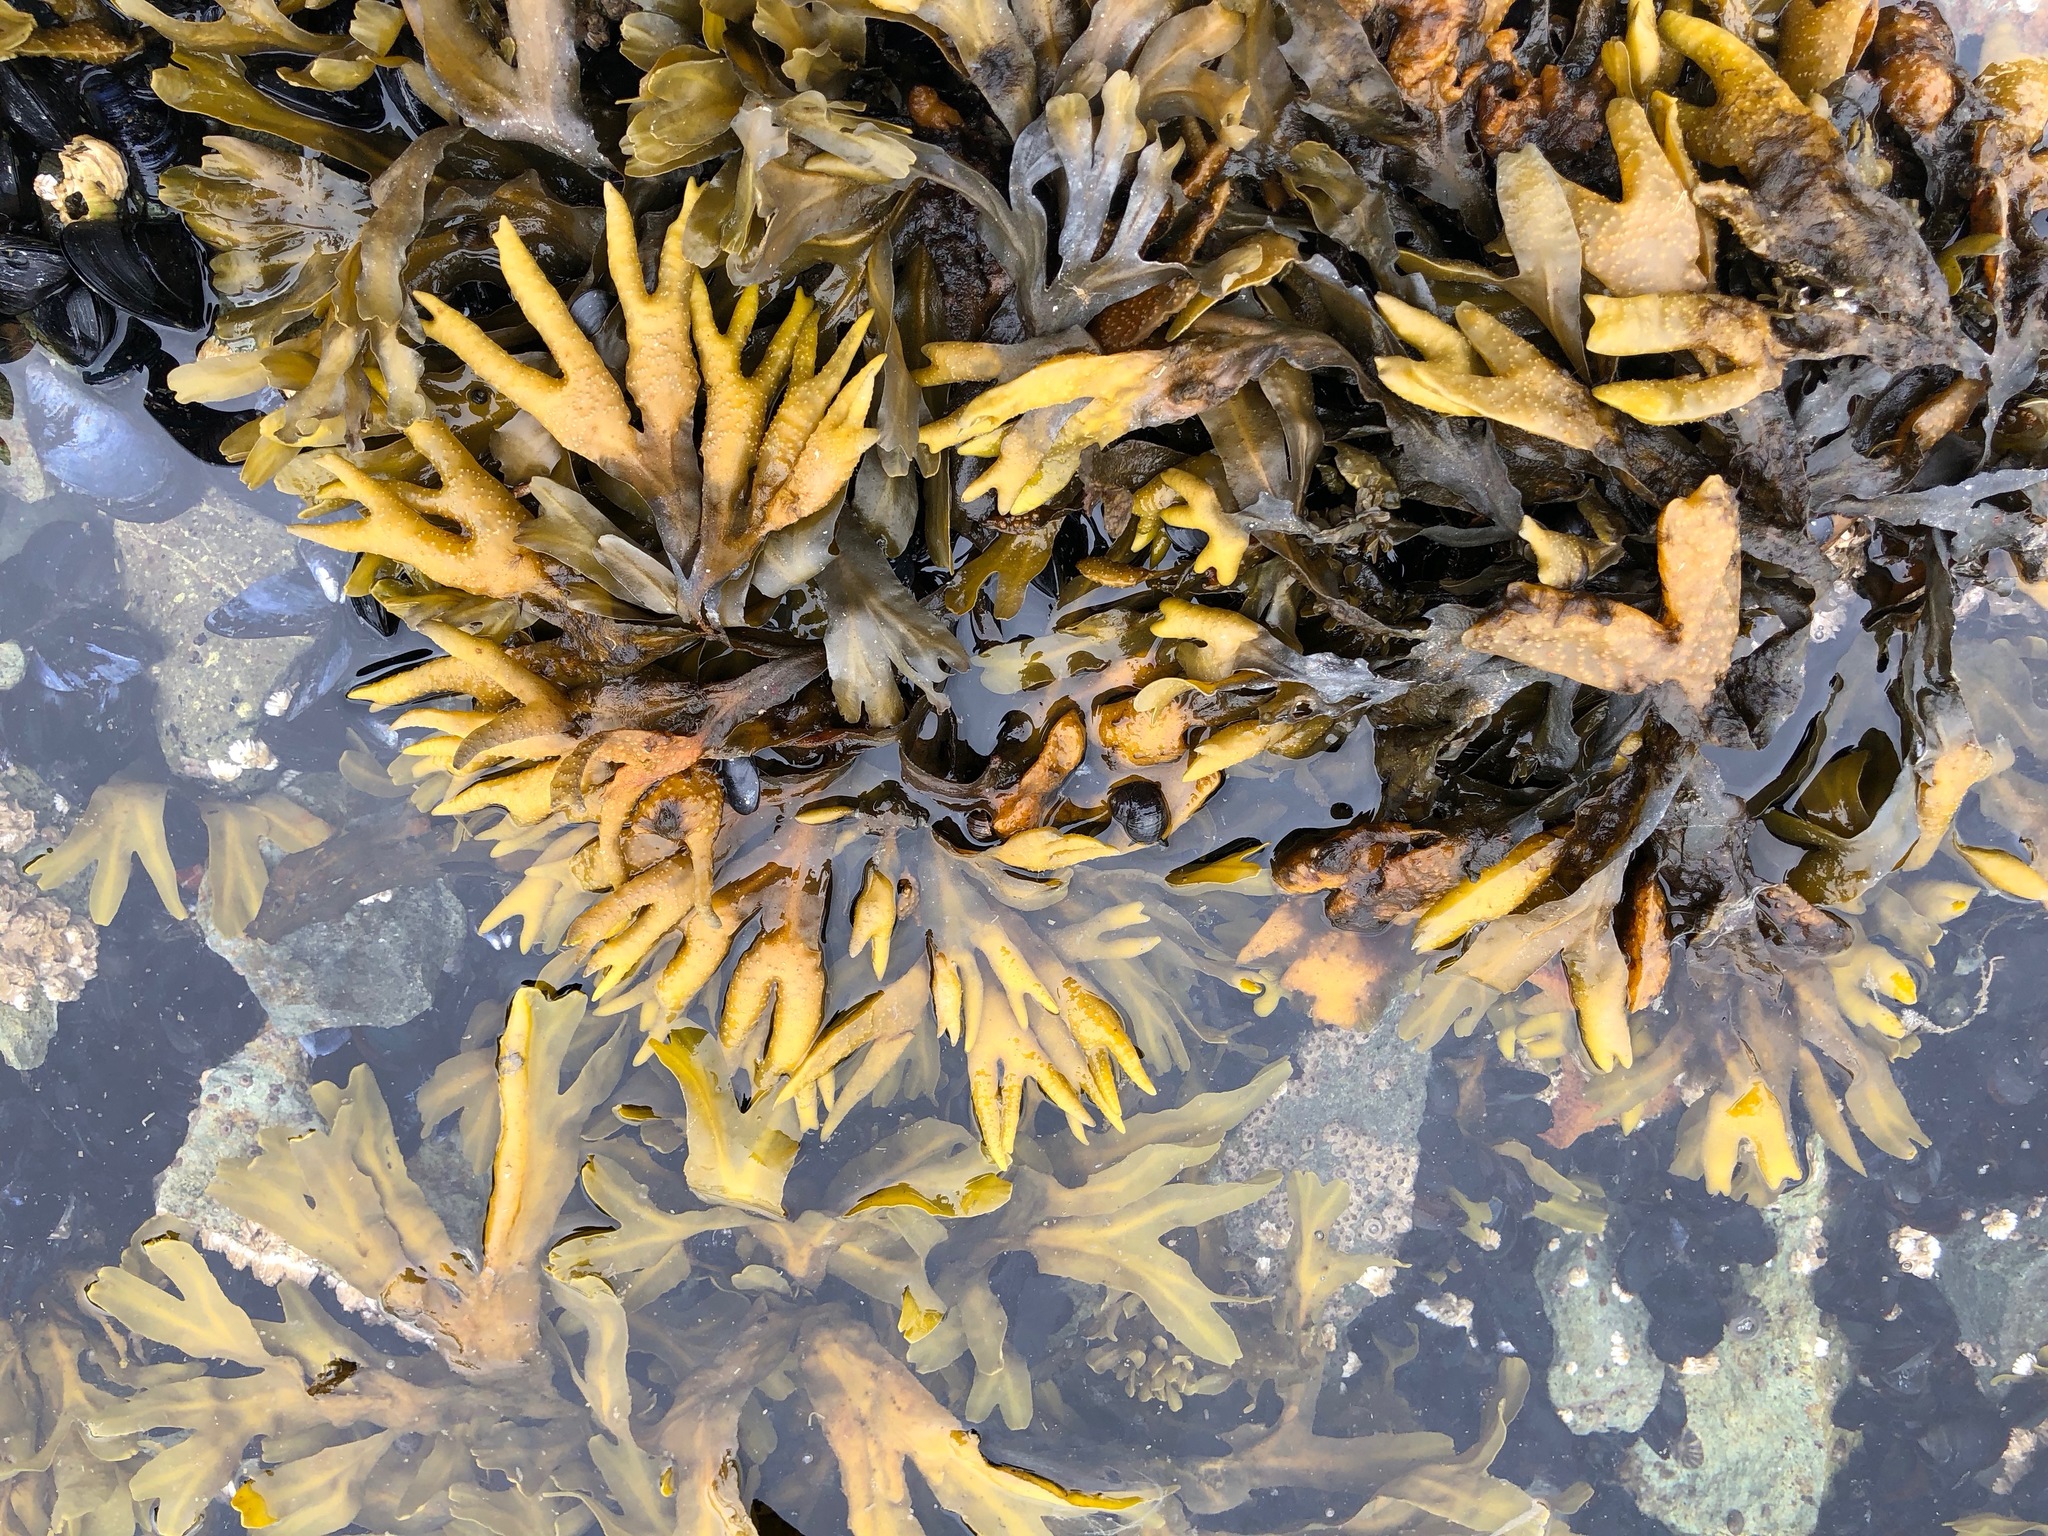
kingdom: Chromista
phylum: Ochrophyta
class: Phaeophyceae
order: Fucales
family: Fucaceae
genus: Fucus
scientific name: Fucus distichus
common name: Rockweed
